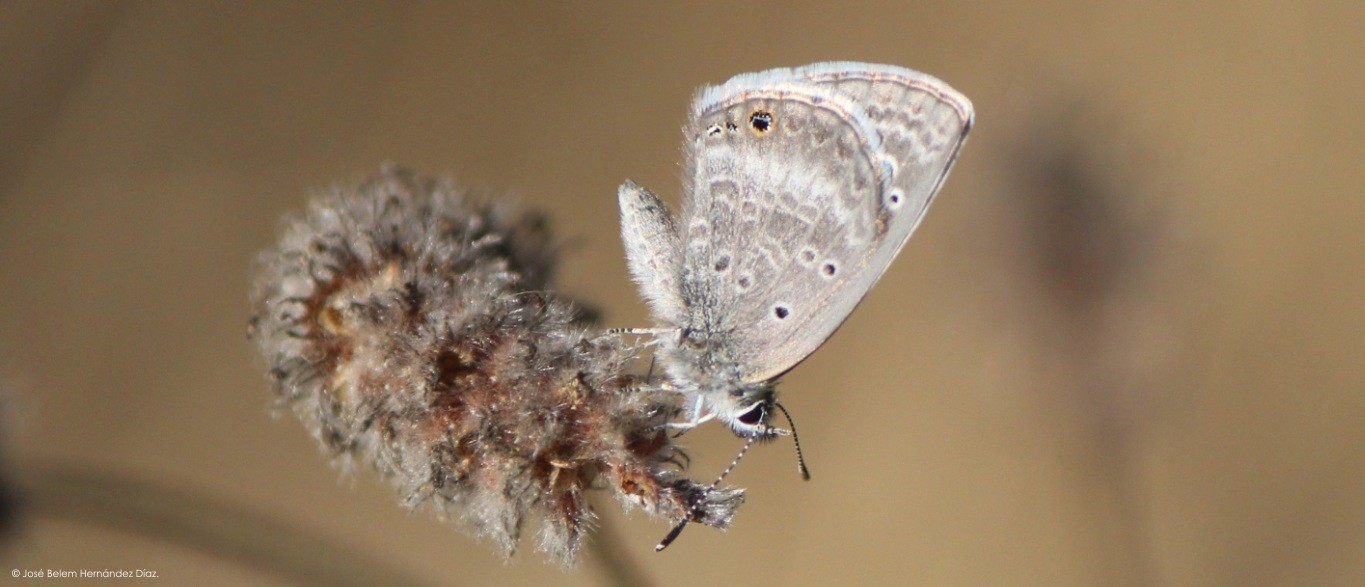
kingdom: Animalia
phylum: Arthropoda
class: Insecta
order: Lepidoptera
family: Lycaenidae
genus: Echinargus
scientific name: Echinargus isola
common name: Reakirt's blue
